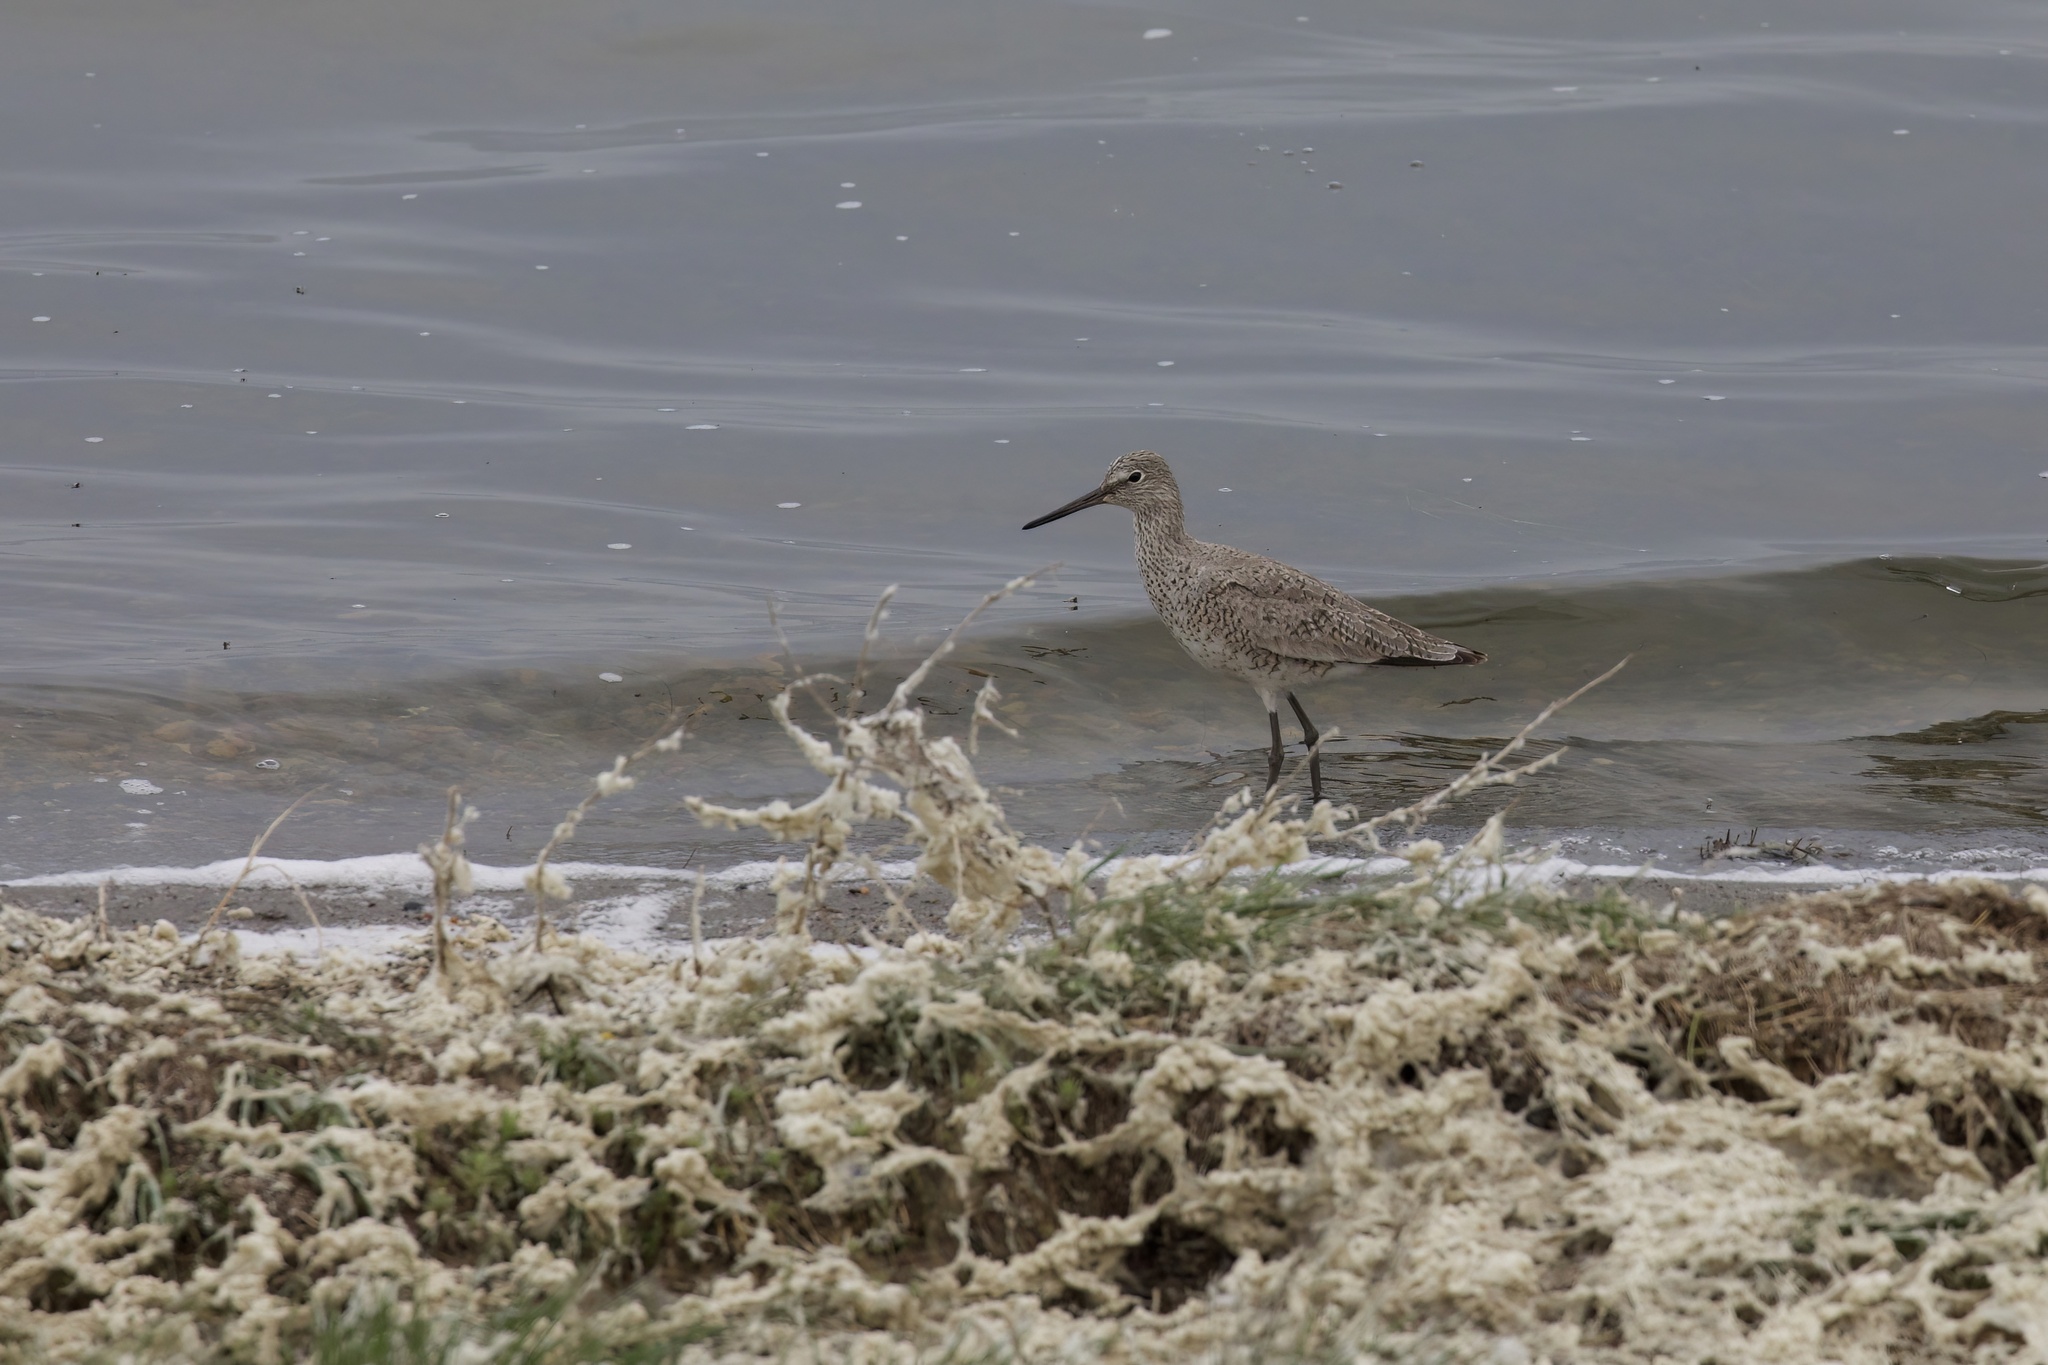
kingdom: Animalia
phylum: Chordata
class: Aves
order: Charadriiformes
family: Scolopacidae
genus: Tringa
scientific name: Tringa semipalmata
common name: Willet
